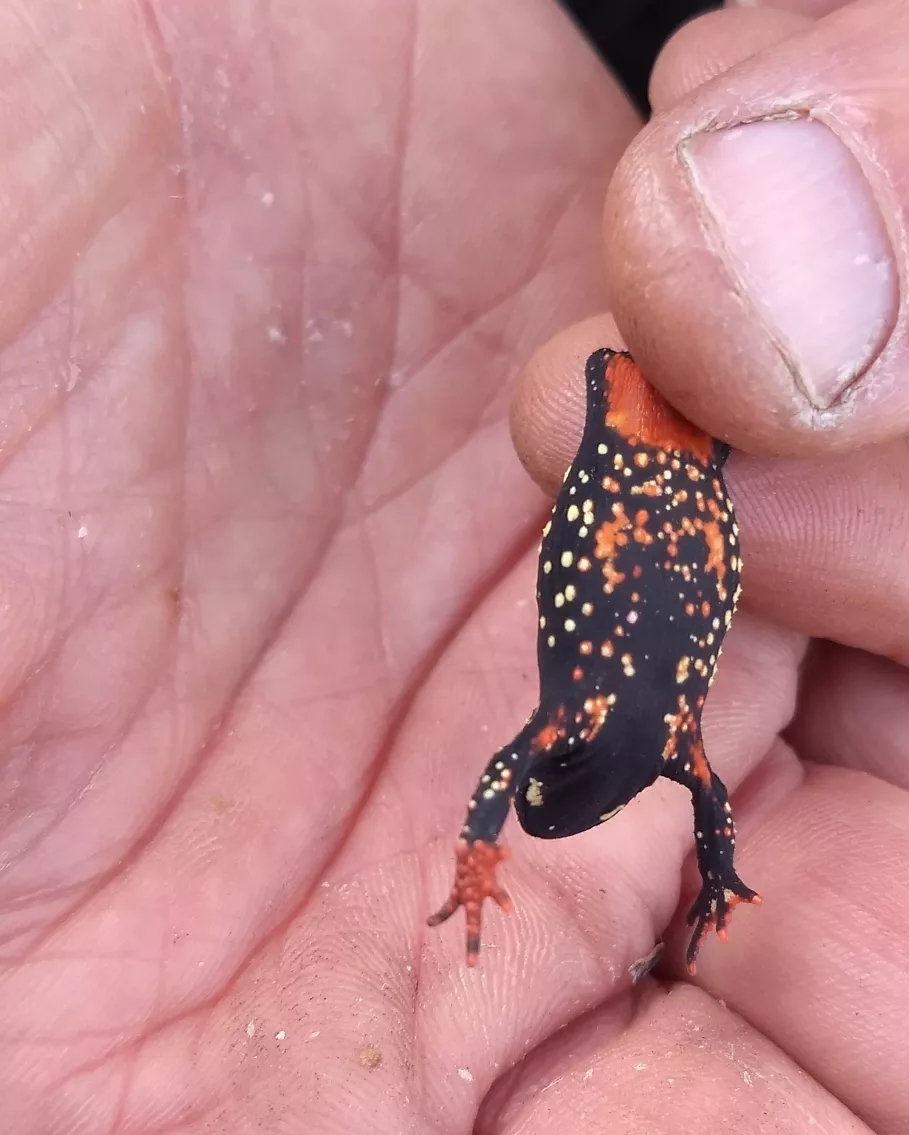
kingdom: Animalia
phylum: Chordata
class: Amphibia
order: Anura
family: Bufonidae
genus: Melanophryniscus
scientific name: Melanophryniscus
